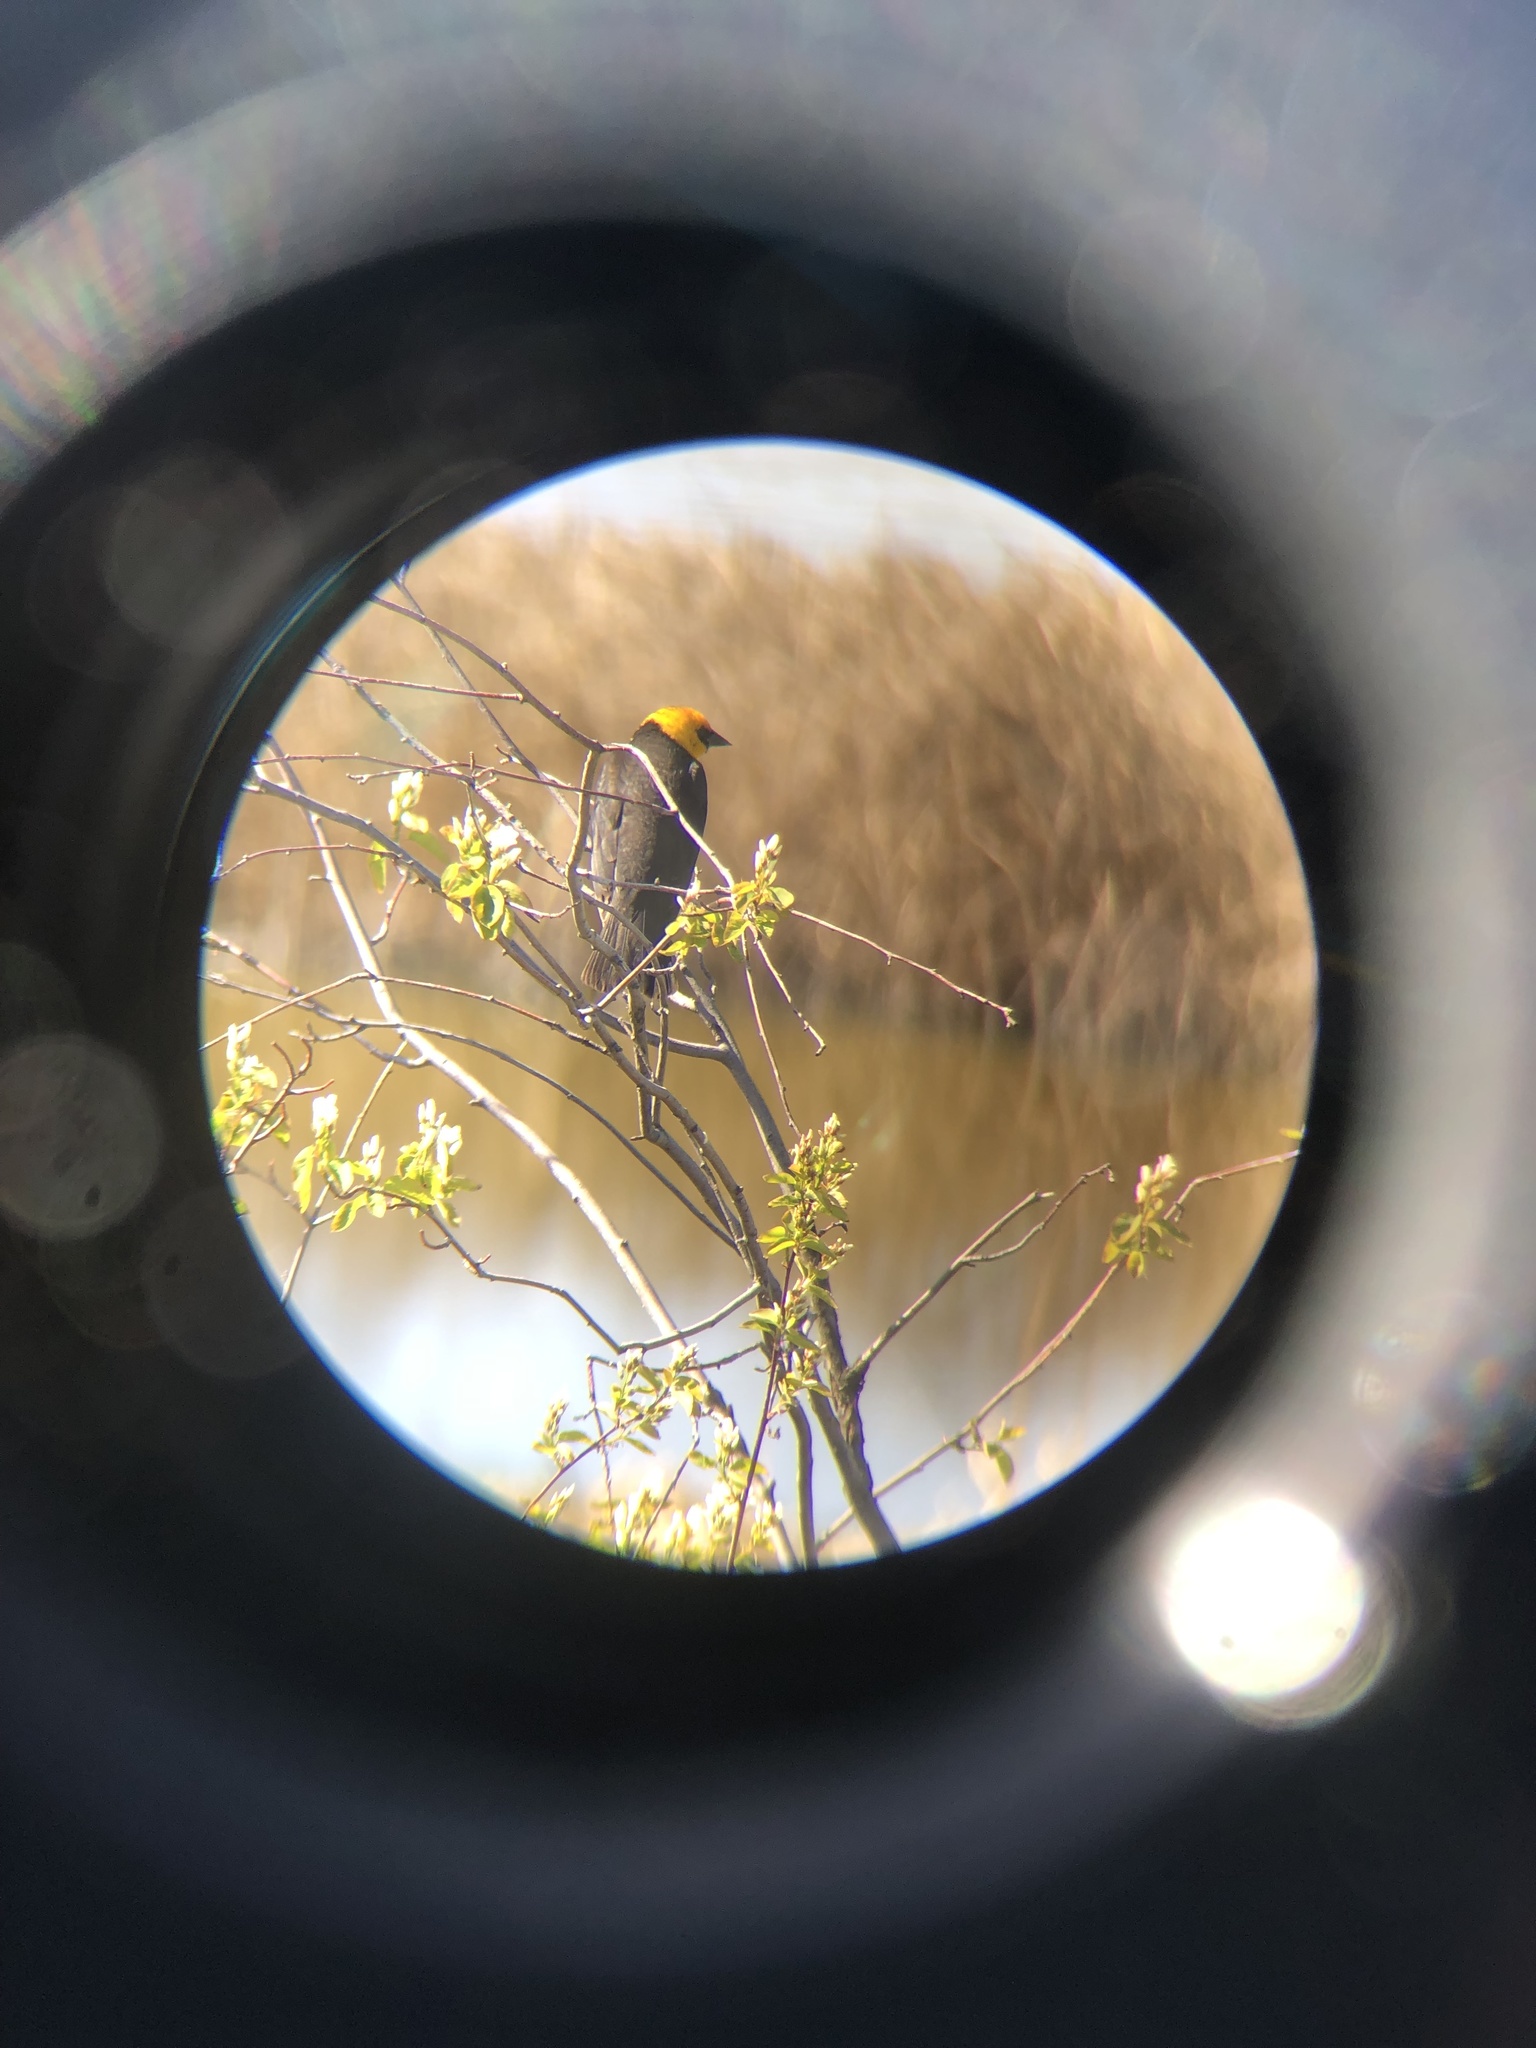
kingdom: Animalia
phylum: Chordata
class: Aves
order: Passeriformes
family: Icteridae
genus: Xanthocephalus
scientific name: Xanthocephalus xanthocephalus
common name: Yellow-headed blackbird
